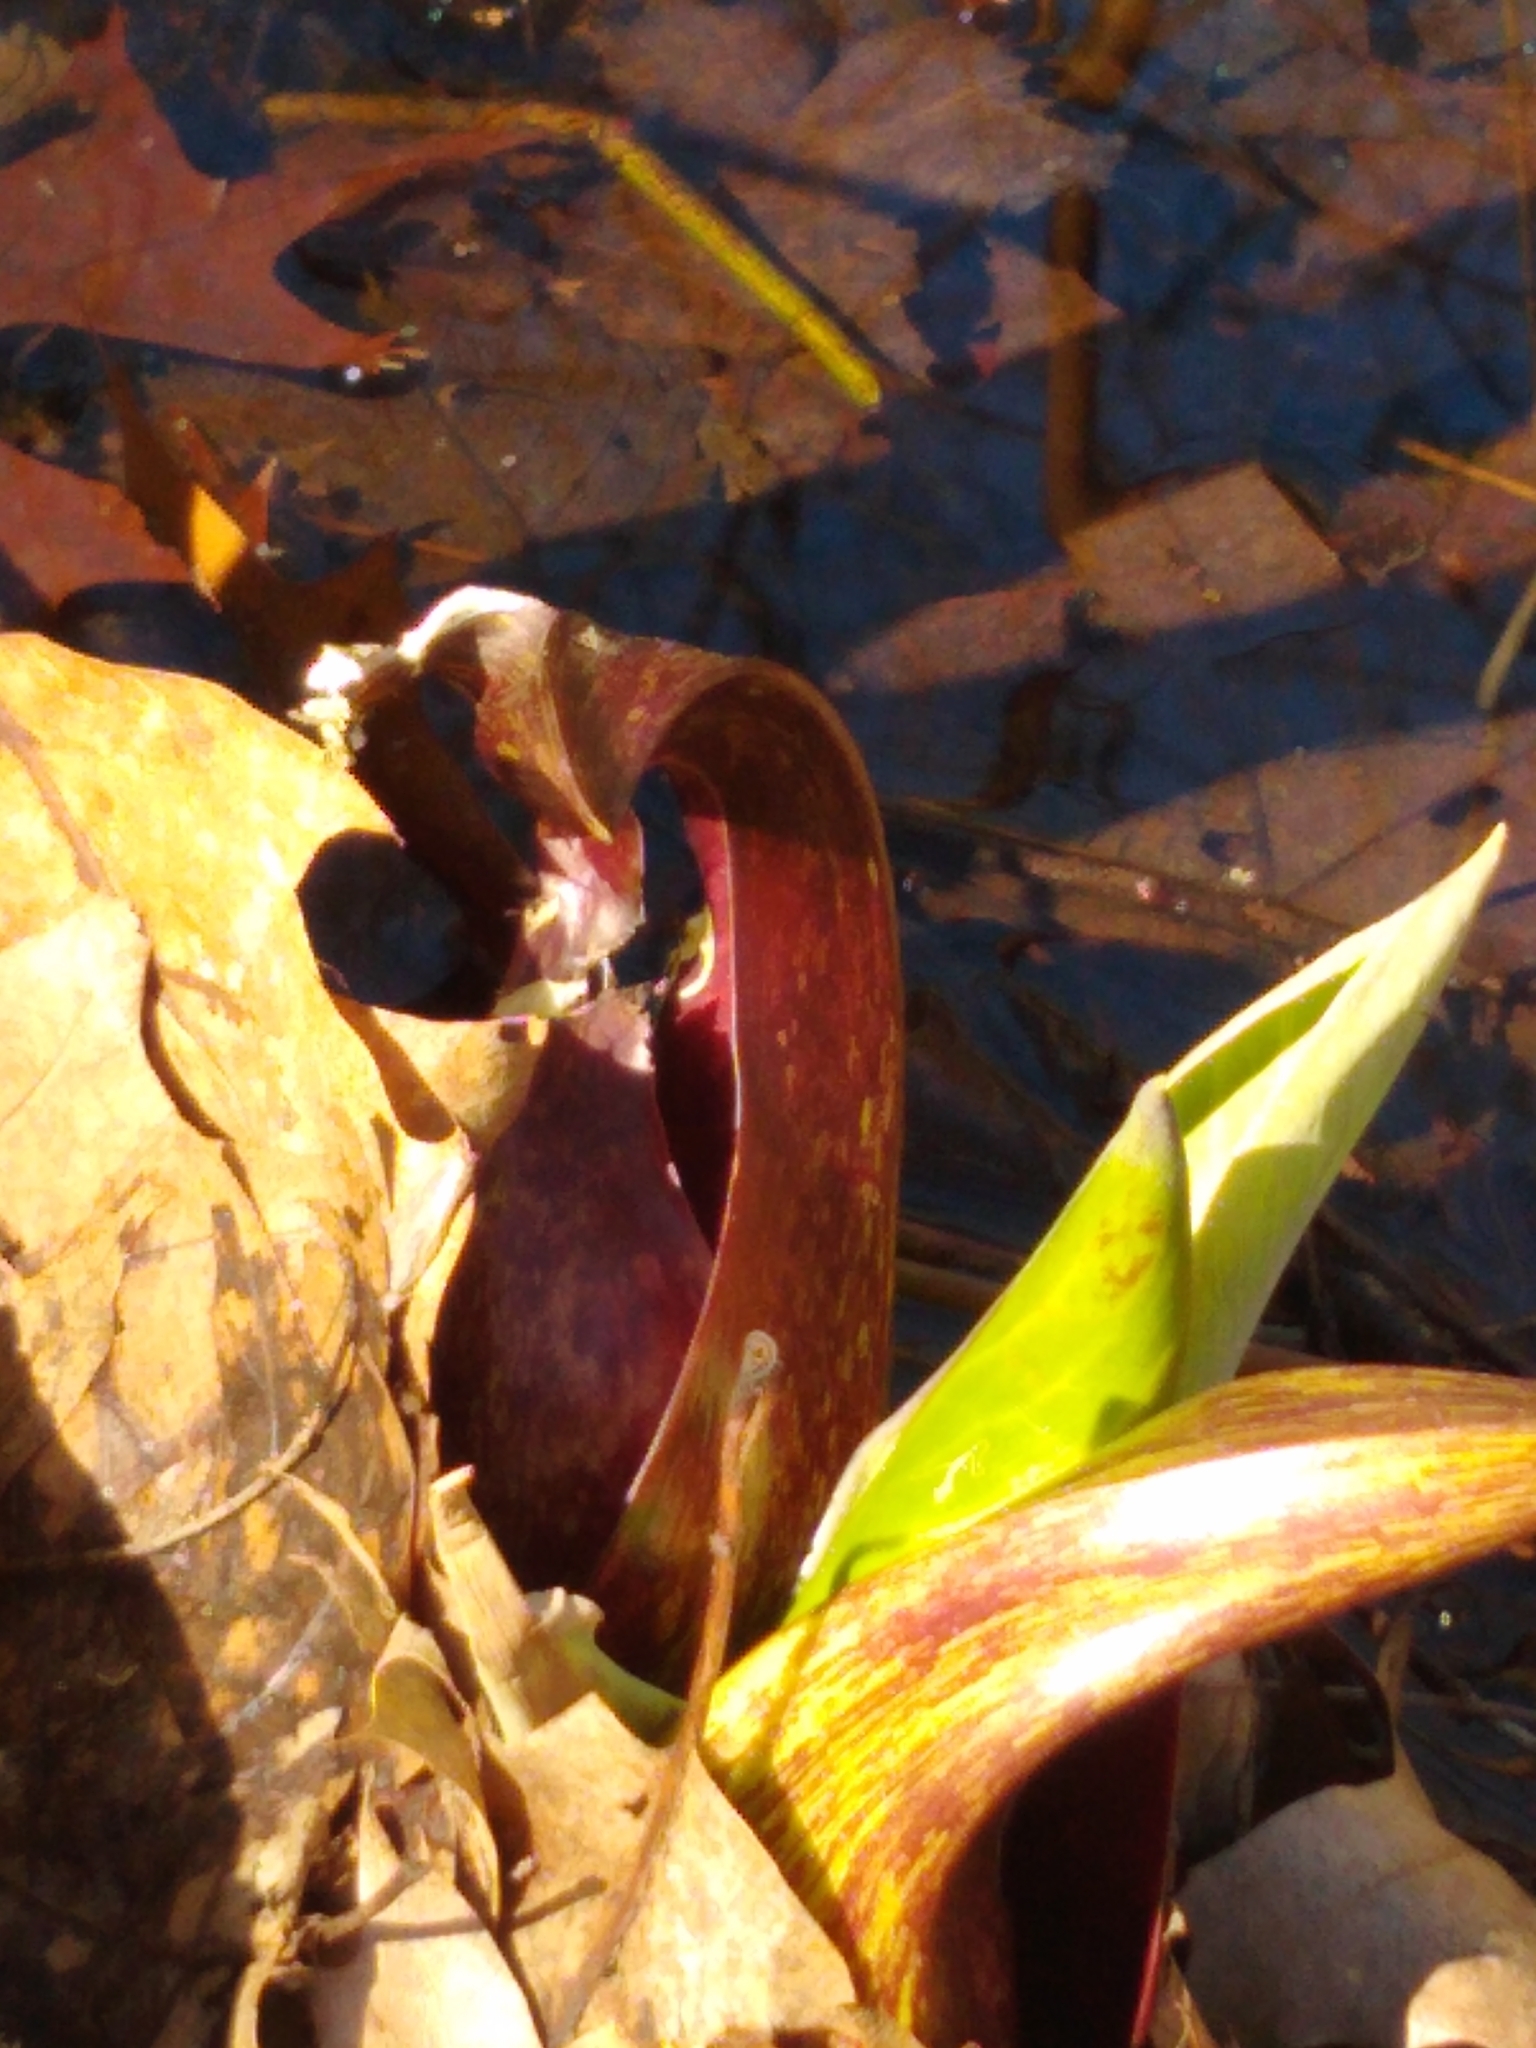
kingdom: Plantae
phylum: Tracheophyta
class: Liliopsida
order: Alismatales
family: Araceae
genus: Symplocarpus
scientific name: Symplocarpus foetidus
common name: Eastern skunk cabbage
